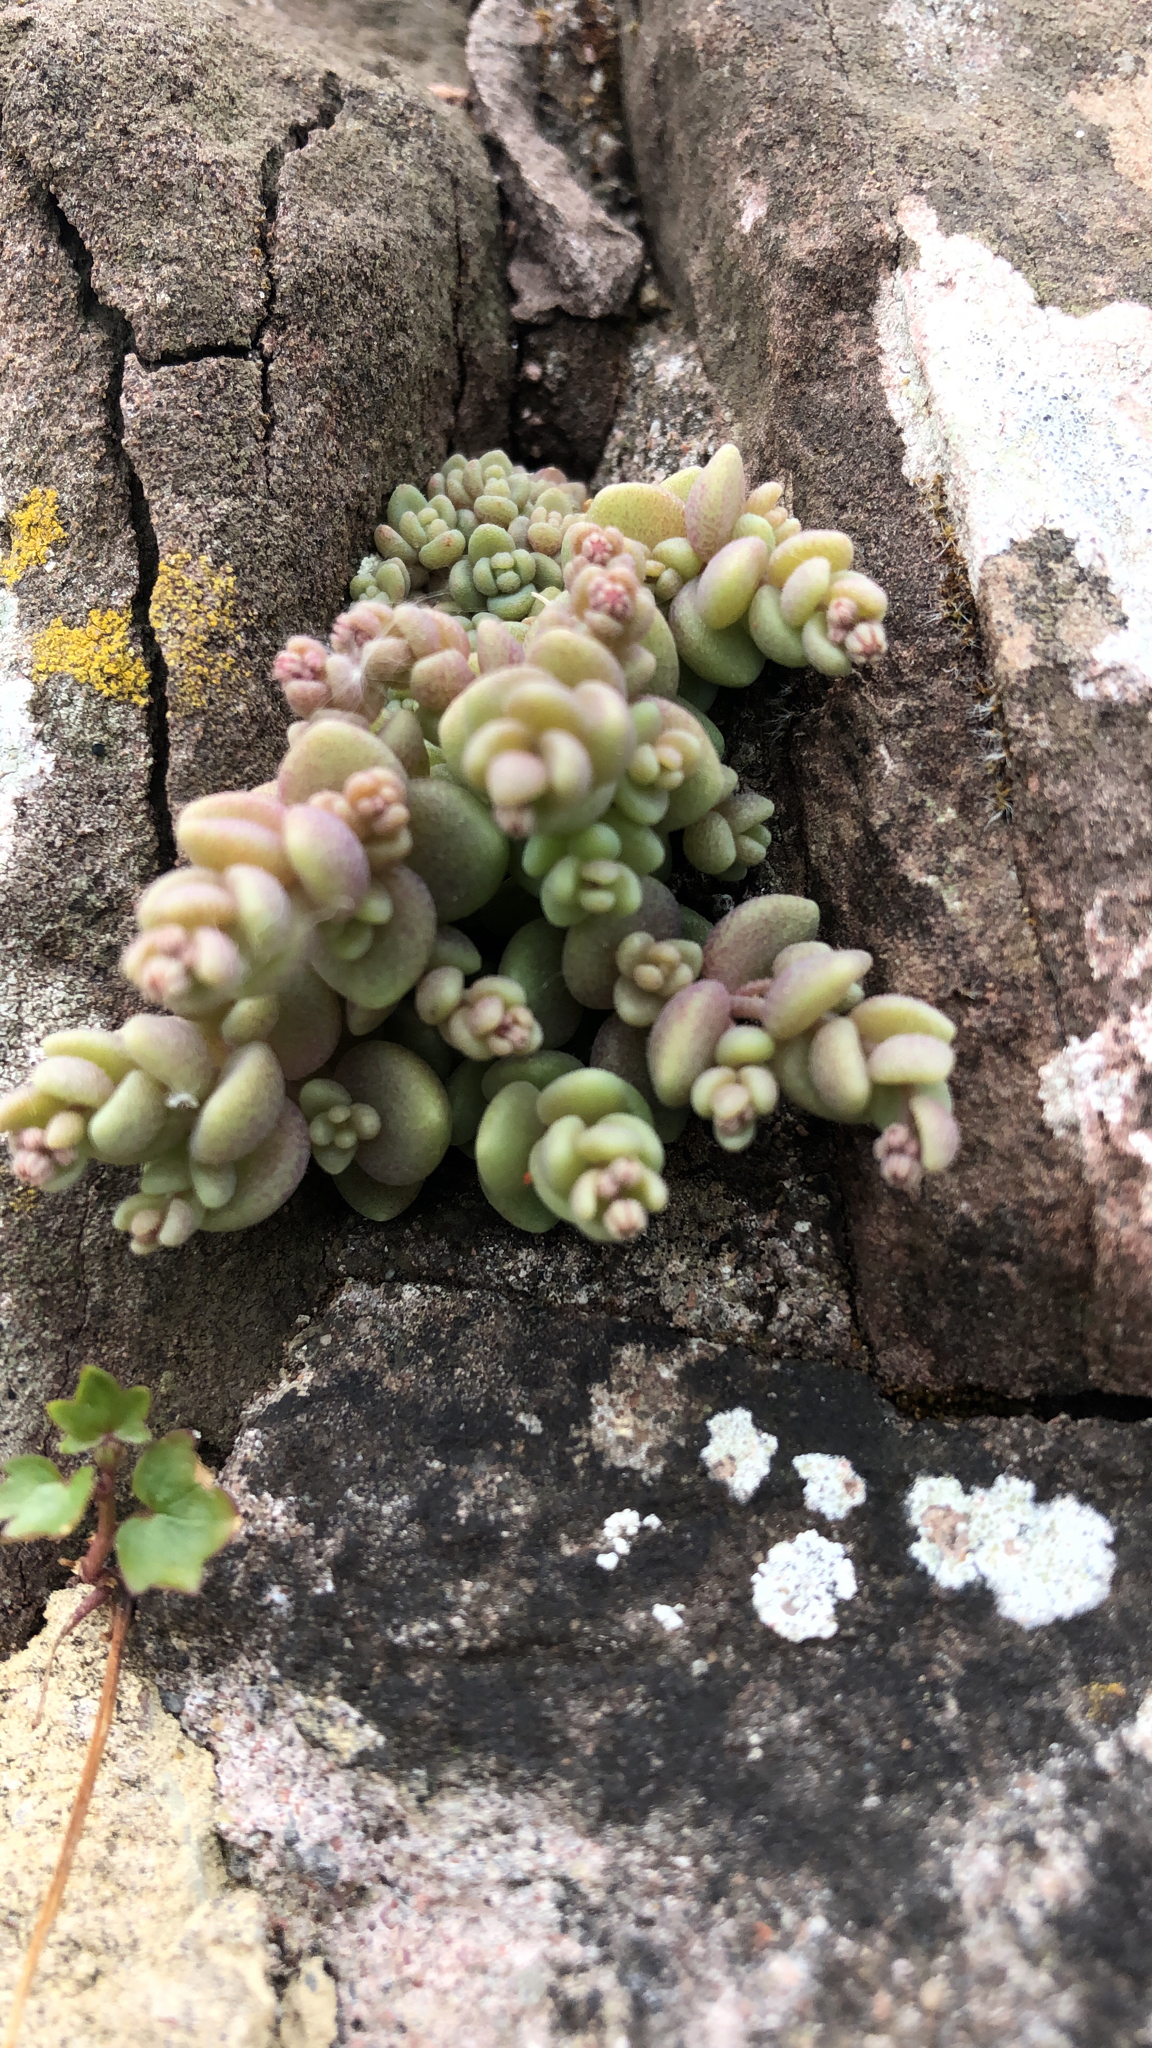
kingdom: Plantae
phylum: Tracheophyta
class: Magnoliopsida
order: Saxifragales
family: Crassulaceae
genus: Sedum
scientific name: Sedum dasyphyllum
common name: Thick-leaf stonecrop
